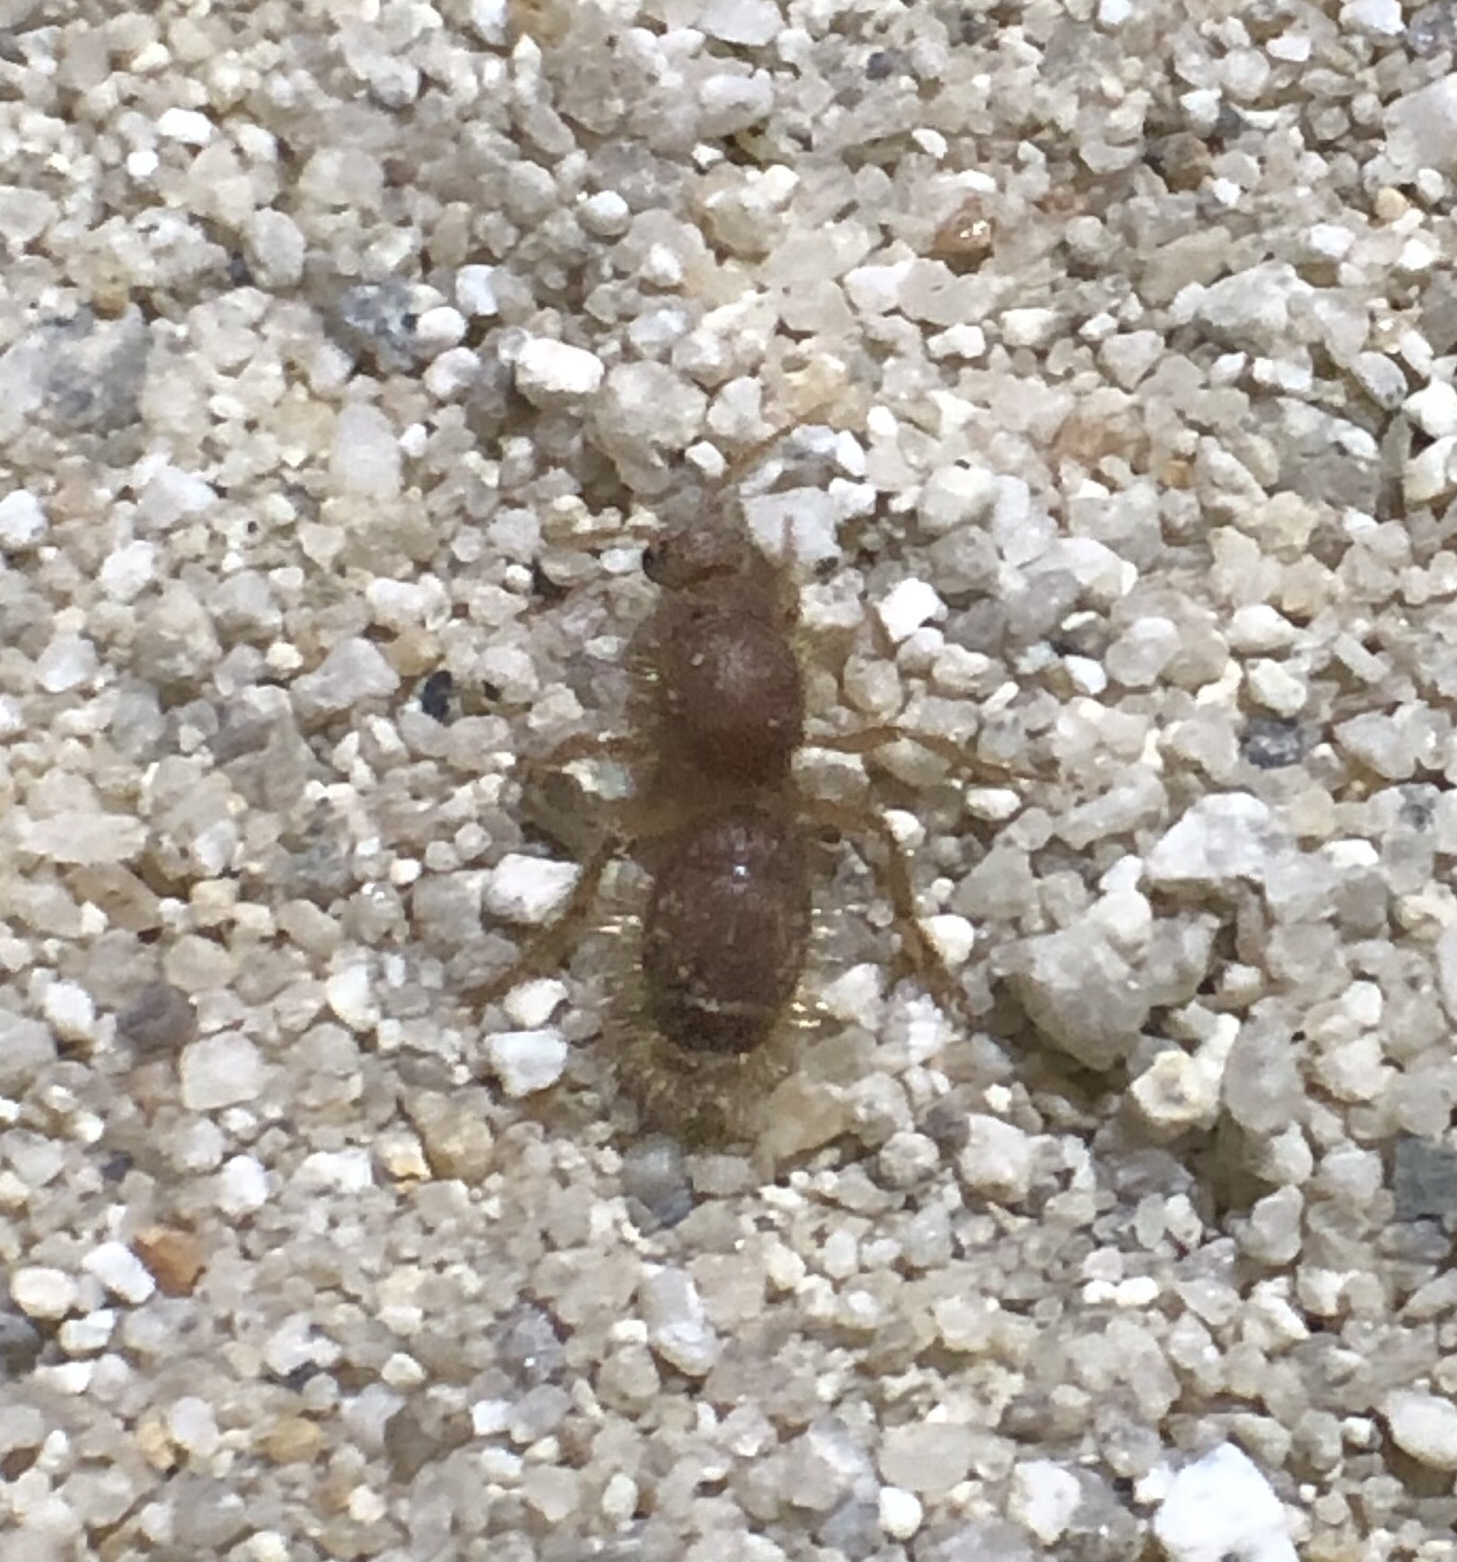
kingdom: Animalia
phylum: Arthropoda
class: Insecta
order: Hymenoptera
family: Chyphotidae
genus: Chyphotes
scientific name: Chyphotes
